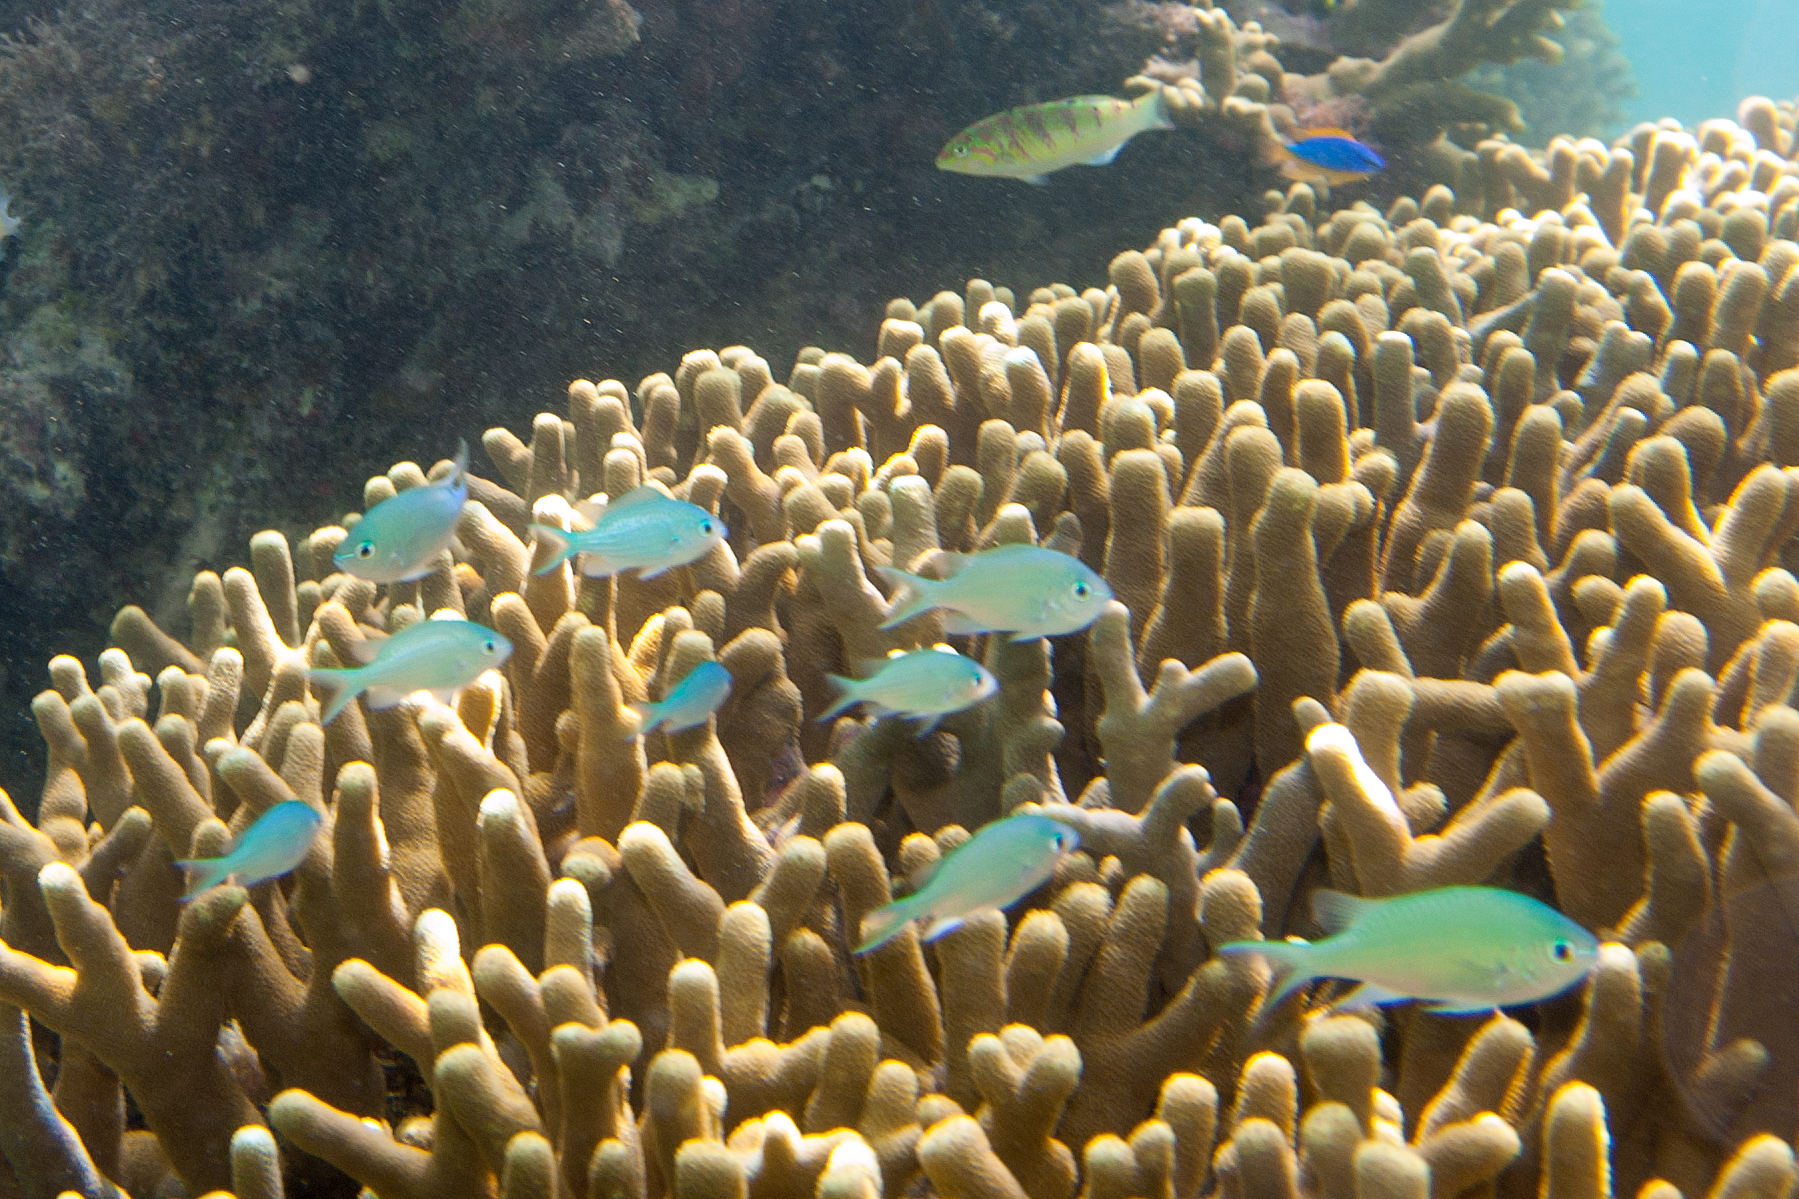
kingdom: Animalia
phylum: Chordata
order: Perciformes
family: Pomacentridae
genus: Chromis
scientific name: Chromis atripectoralis
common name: Black-axil chromis
